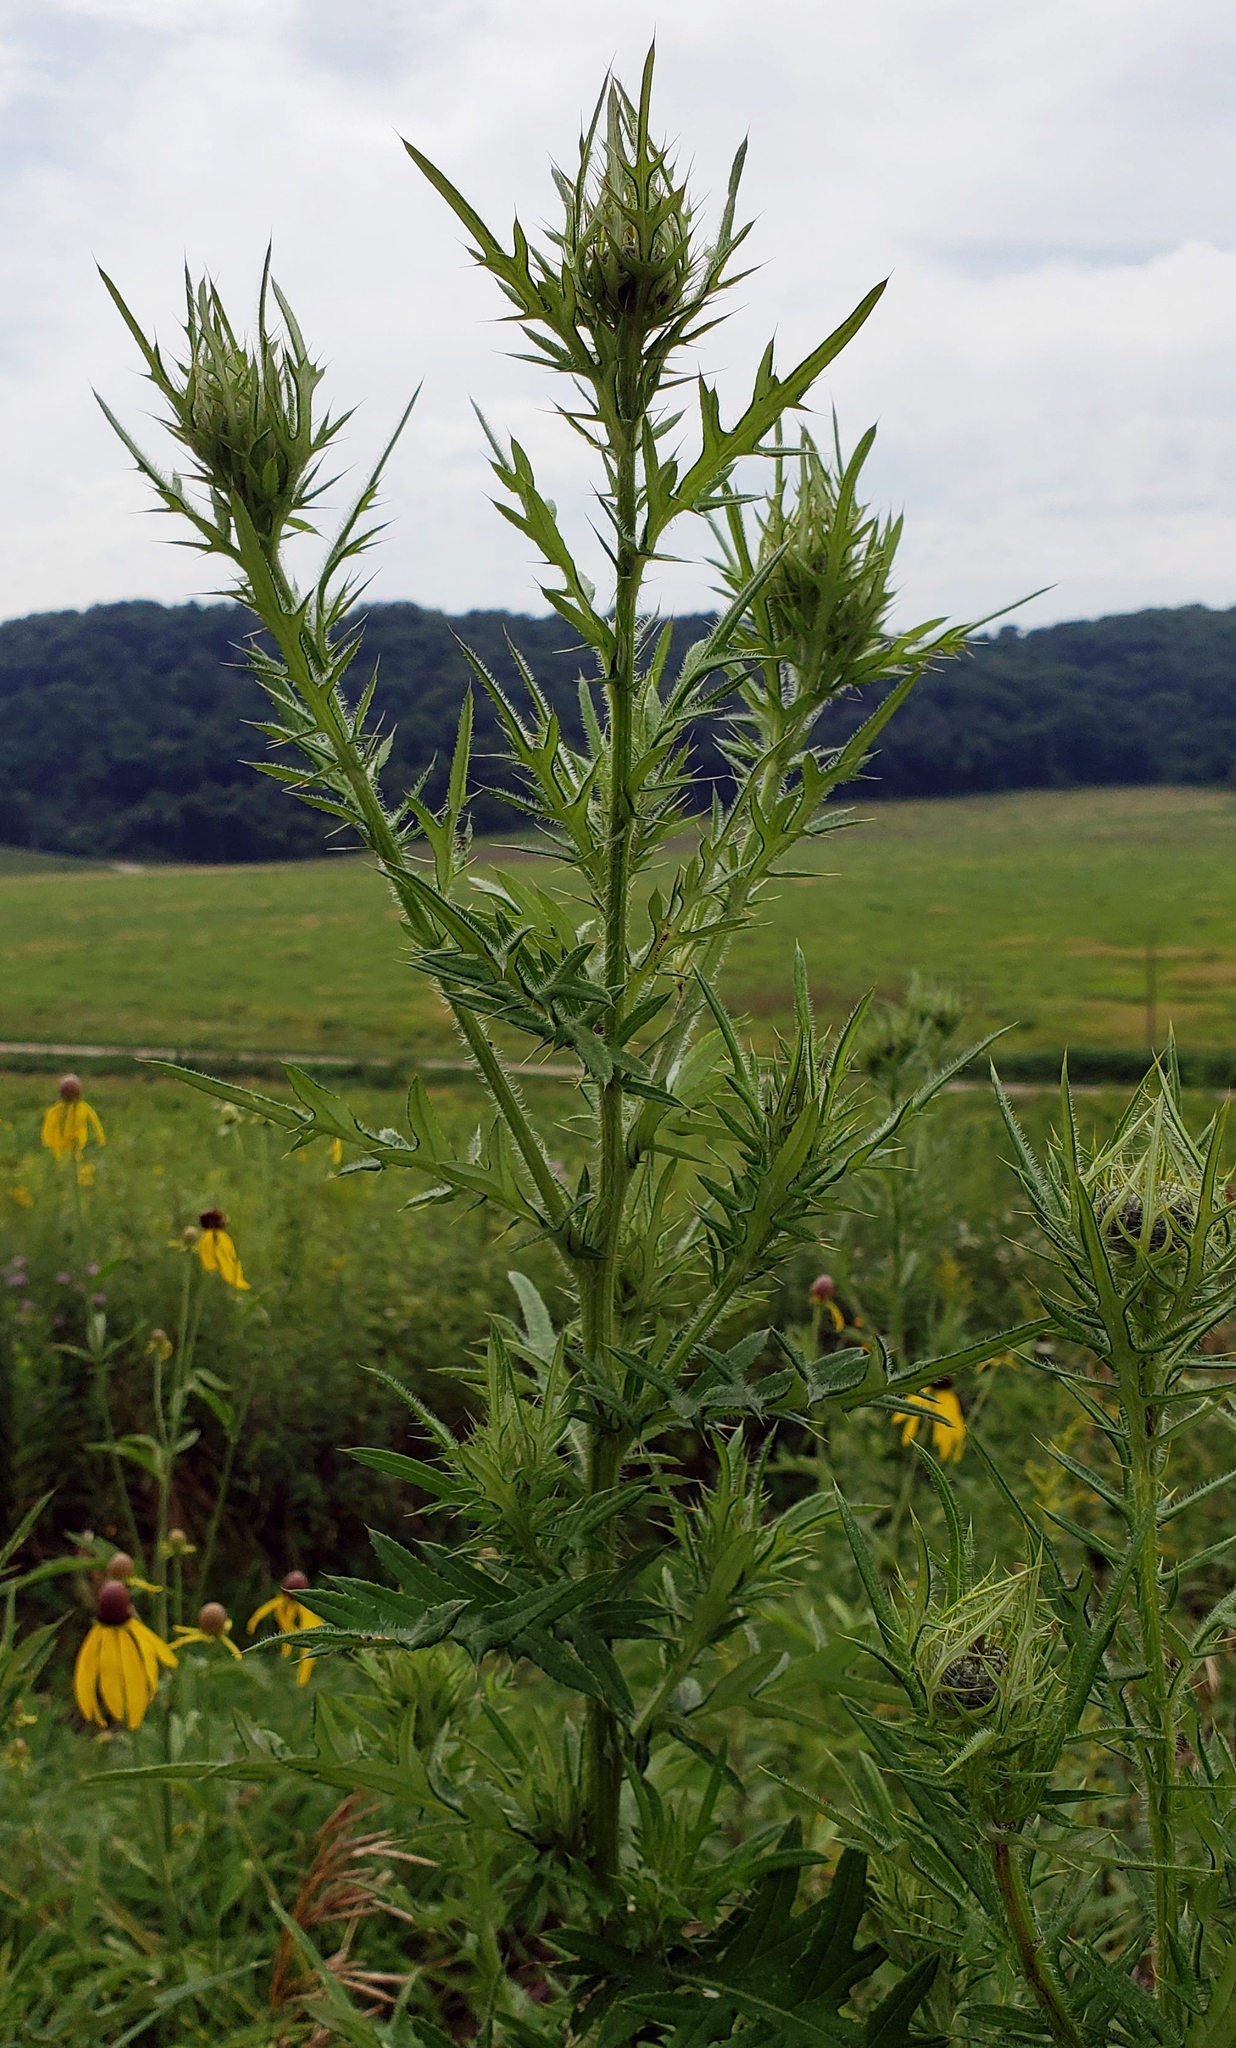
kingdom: Plantae
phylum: Tracheophyta
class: Magnoliopsida
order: Asterales
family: Asteraceae
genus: Cirsium
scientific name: Cirsium discolor
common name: Field thistle
